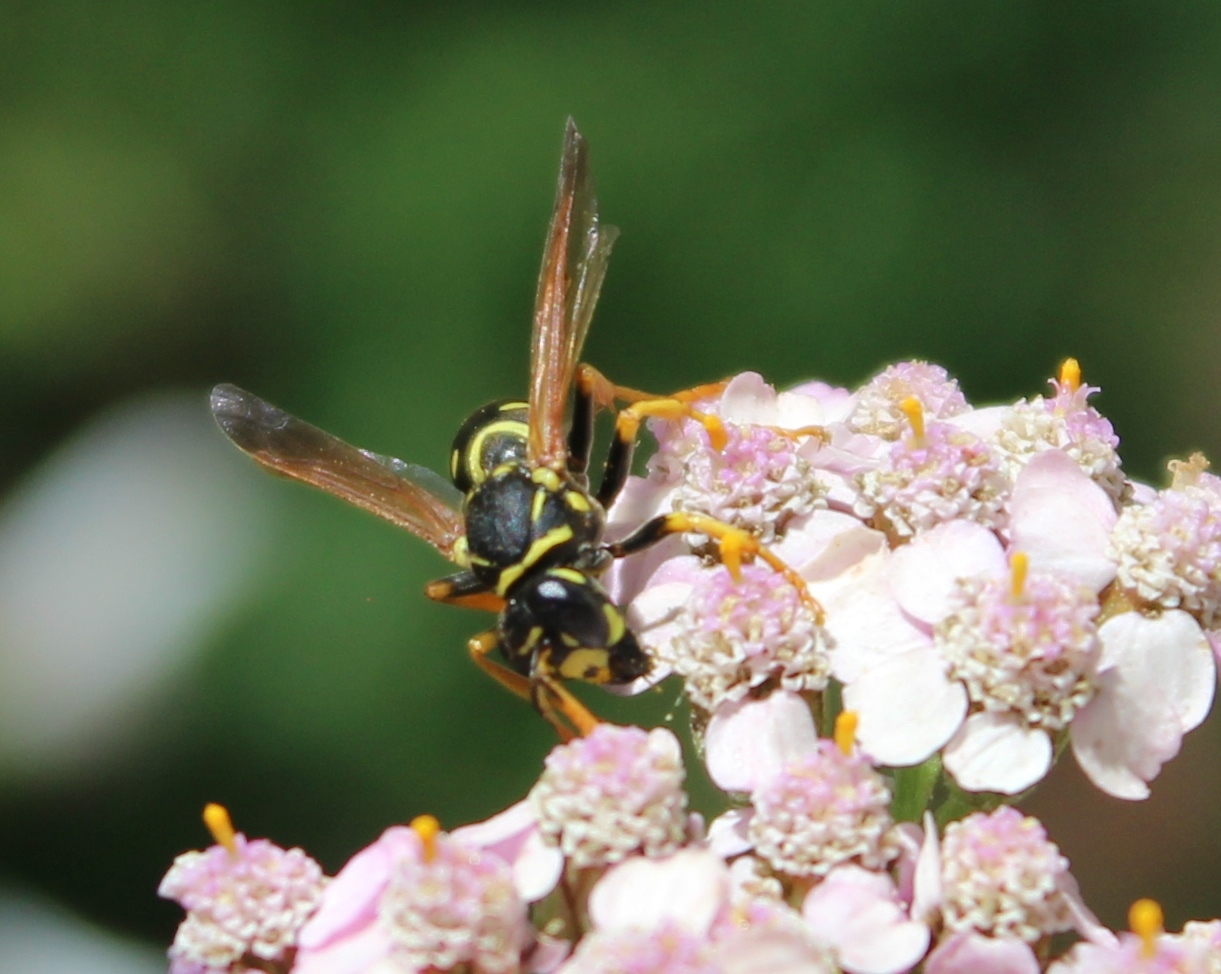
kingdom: Animalia
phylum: Arthropoda
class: Insecta
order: Hymenoptera
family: Eumenidae
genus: Polistes
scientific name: Polistes dominula
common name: Paper wasp
